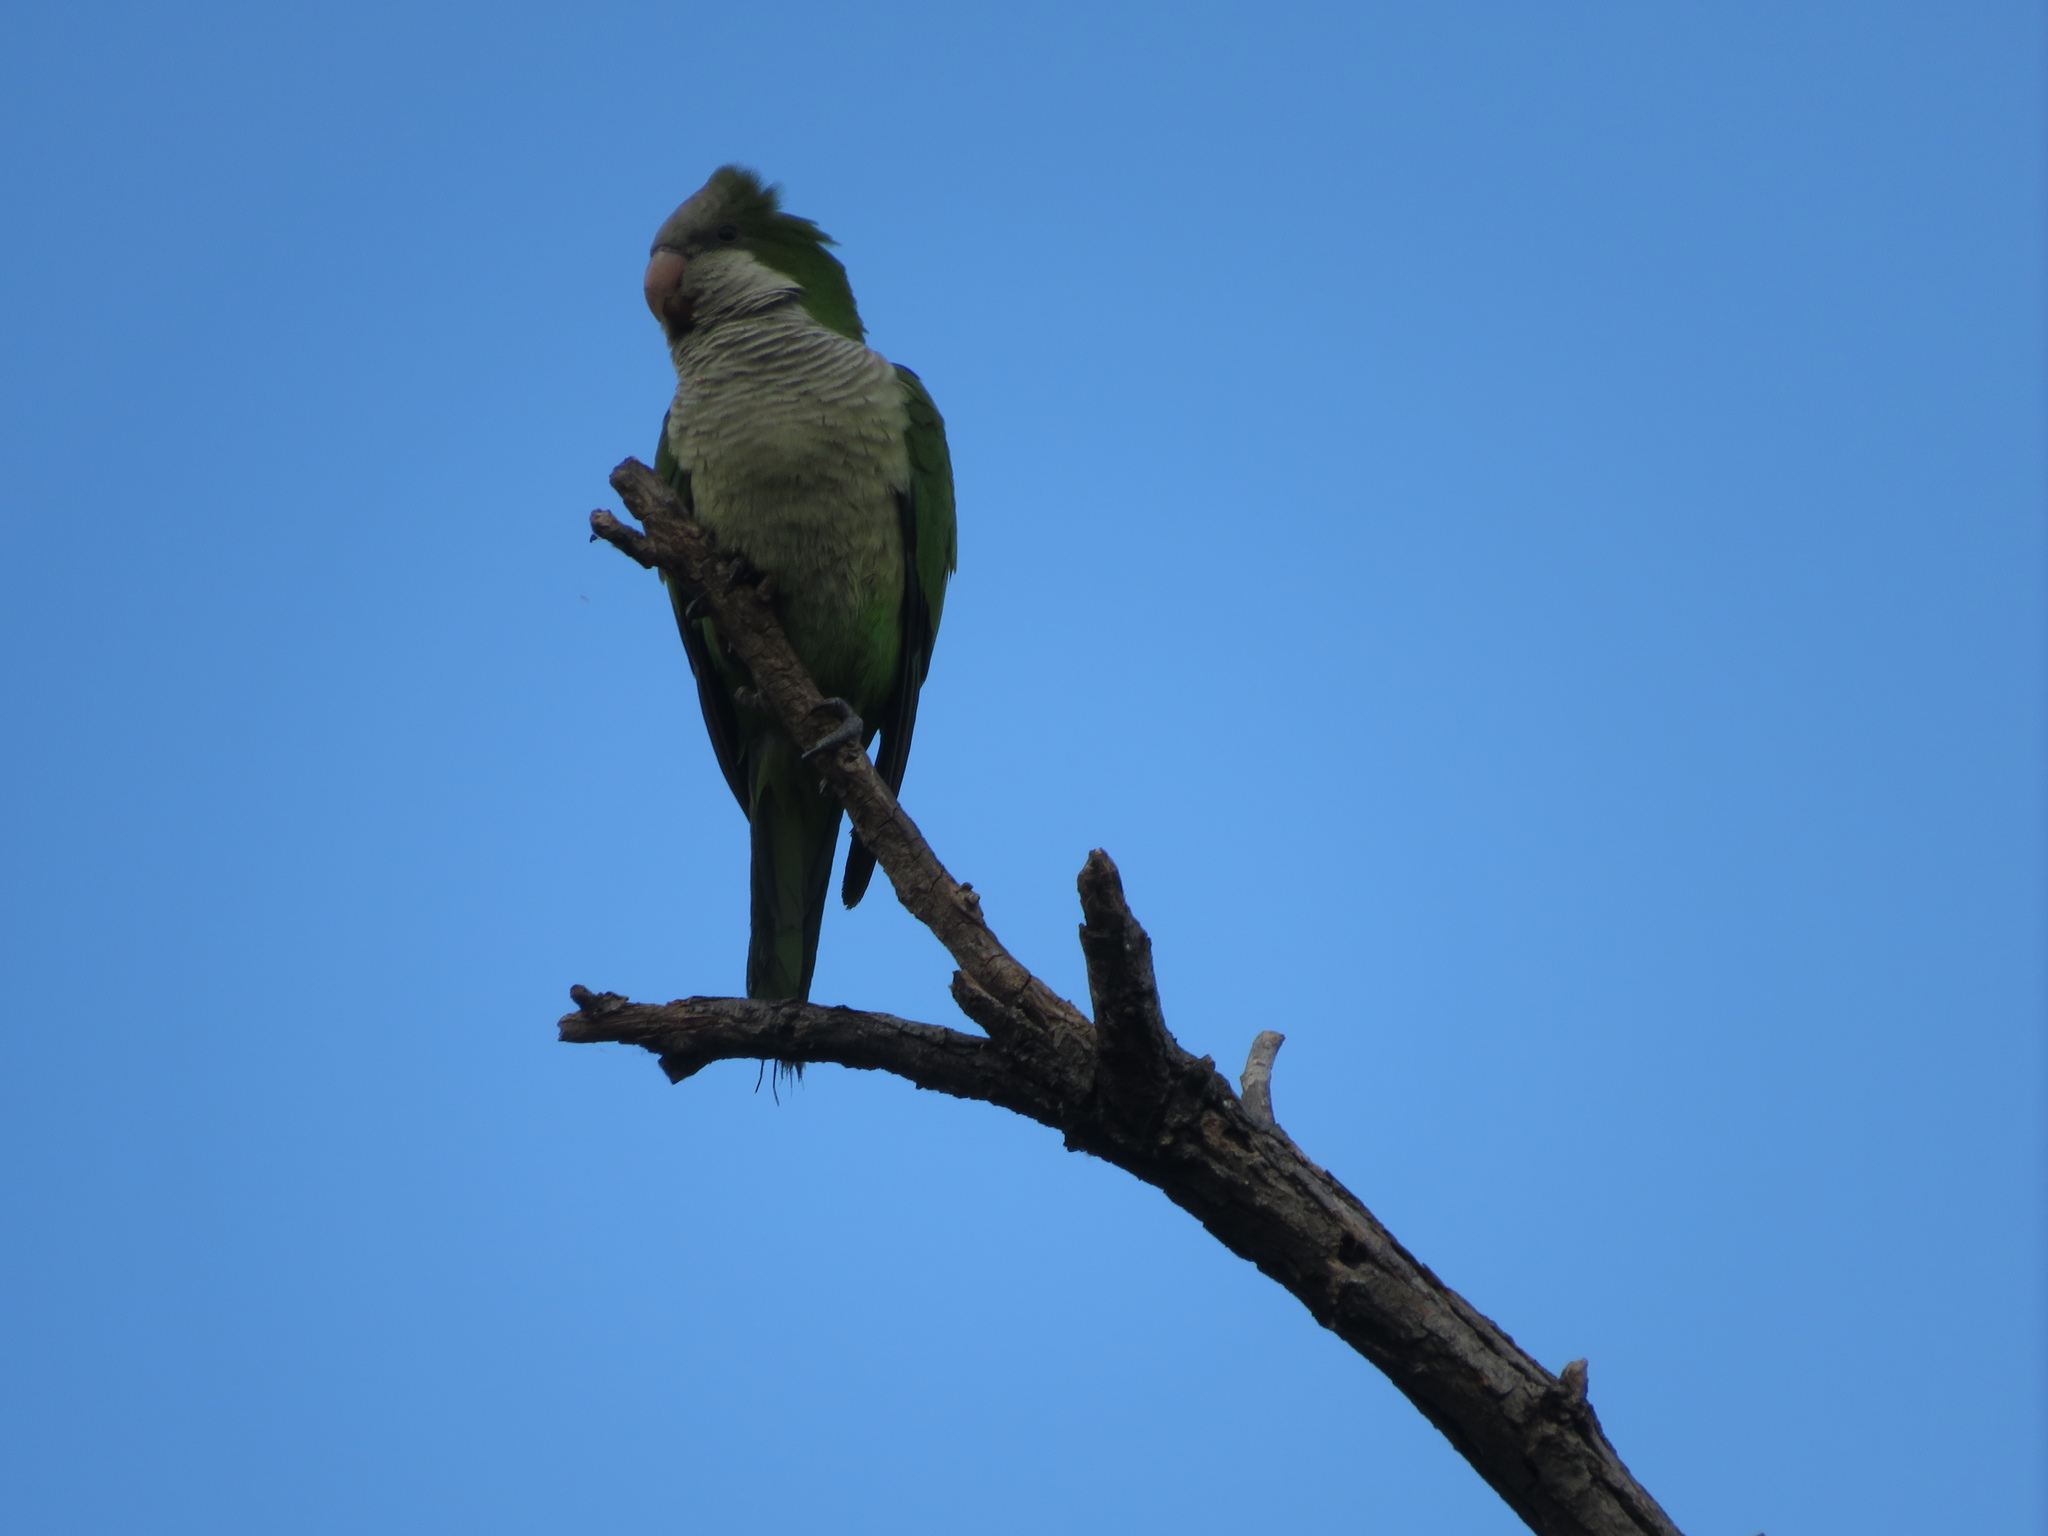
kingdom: Animalia
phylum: Chordata
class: Aves
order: Psittaciformes
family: Psittacidae
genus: Myiopsitta
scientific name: Myiopsitta monachus
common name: Monk parakeet
